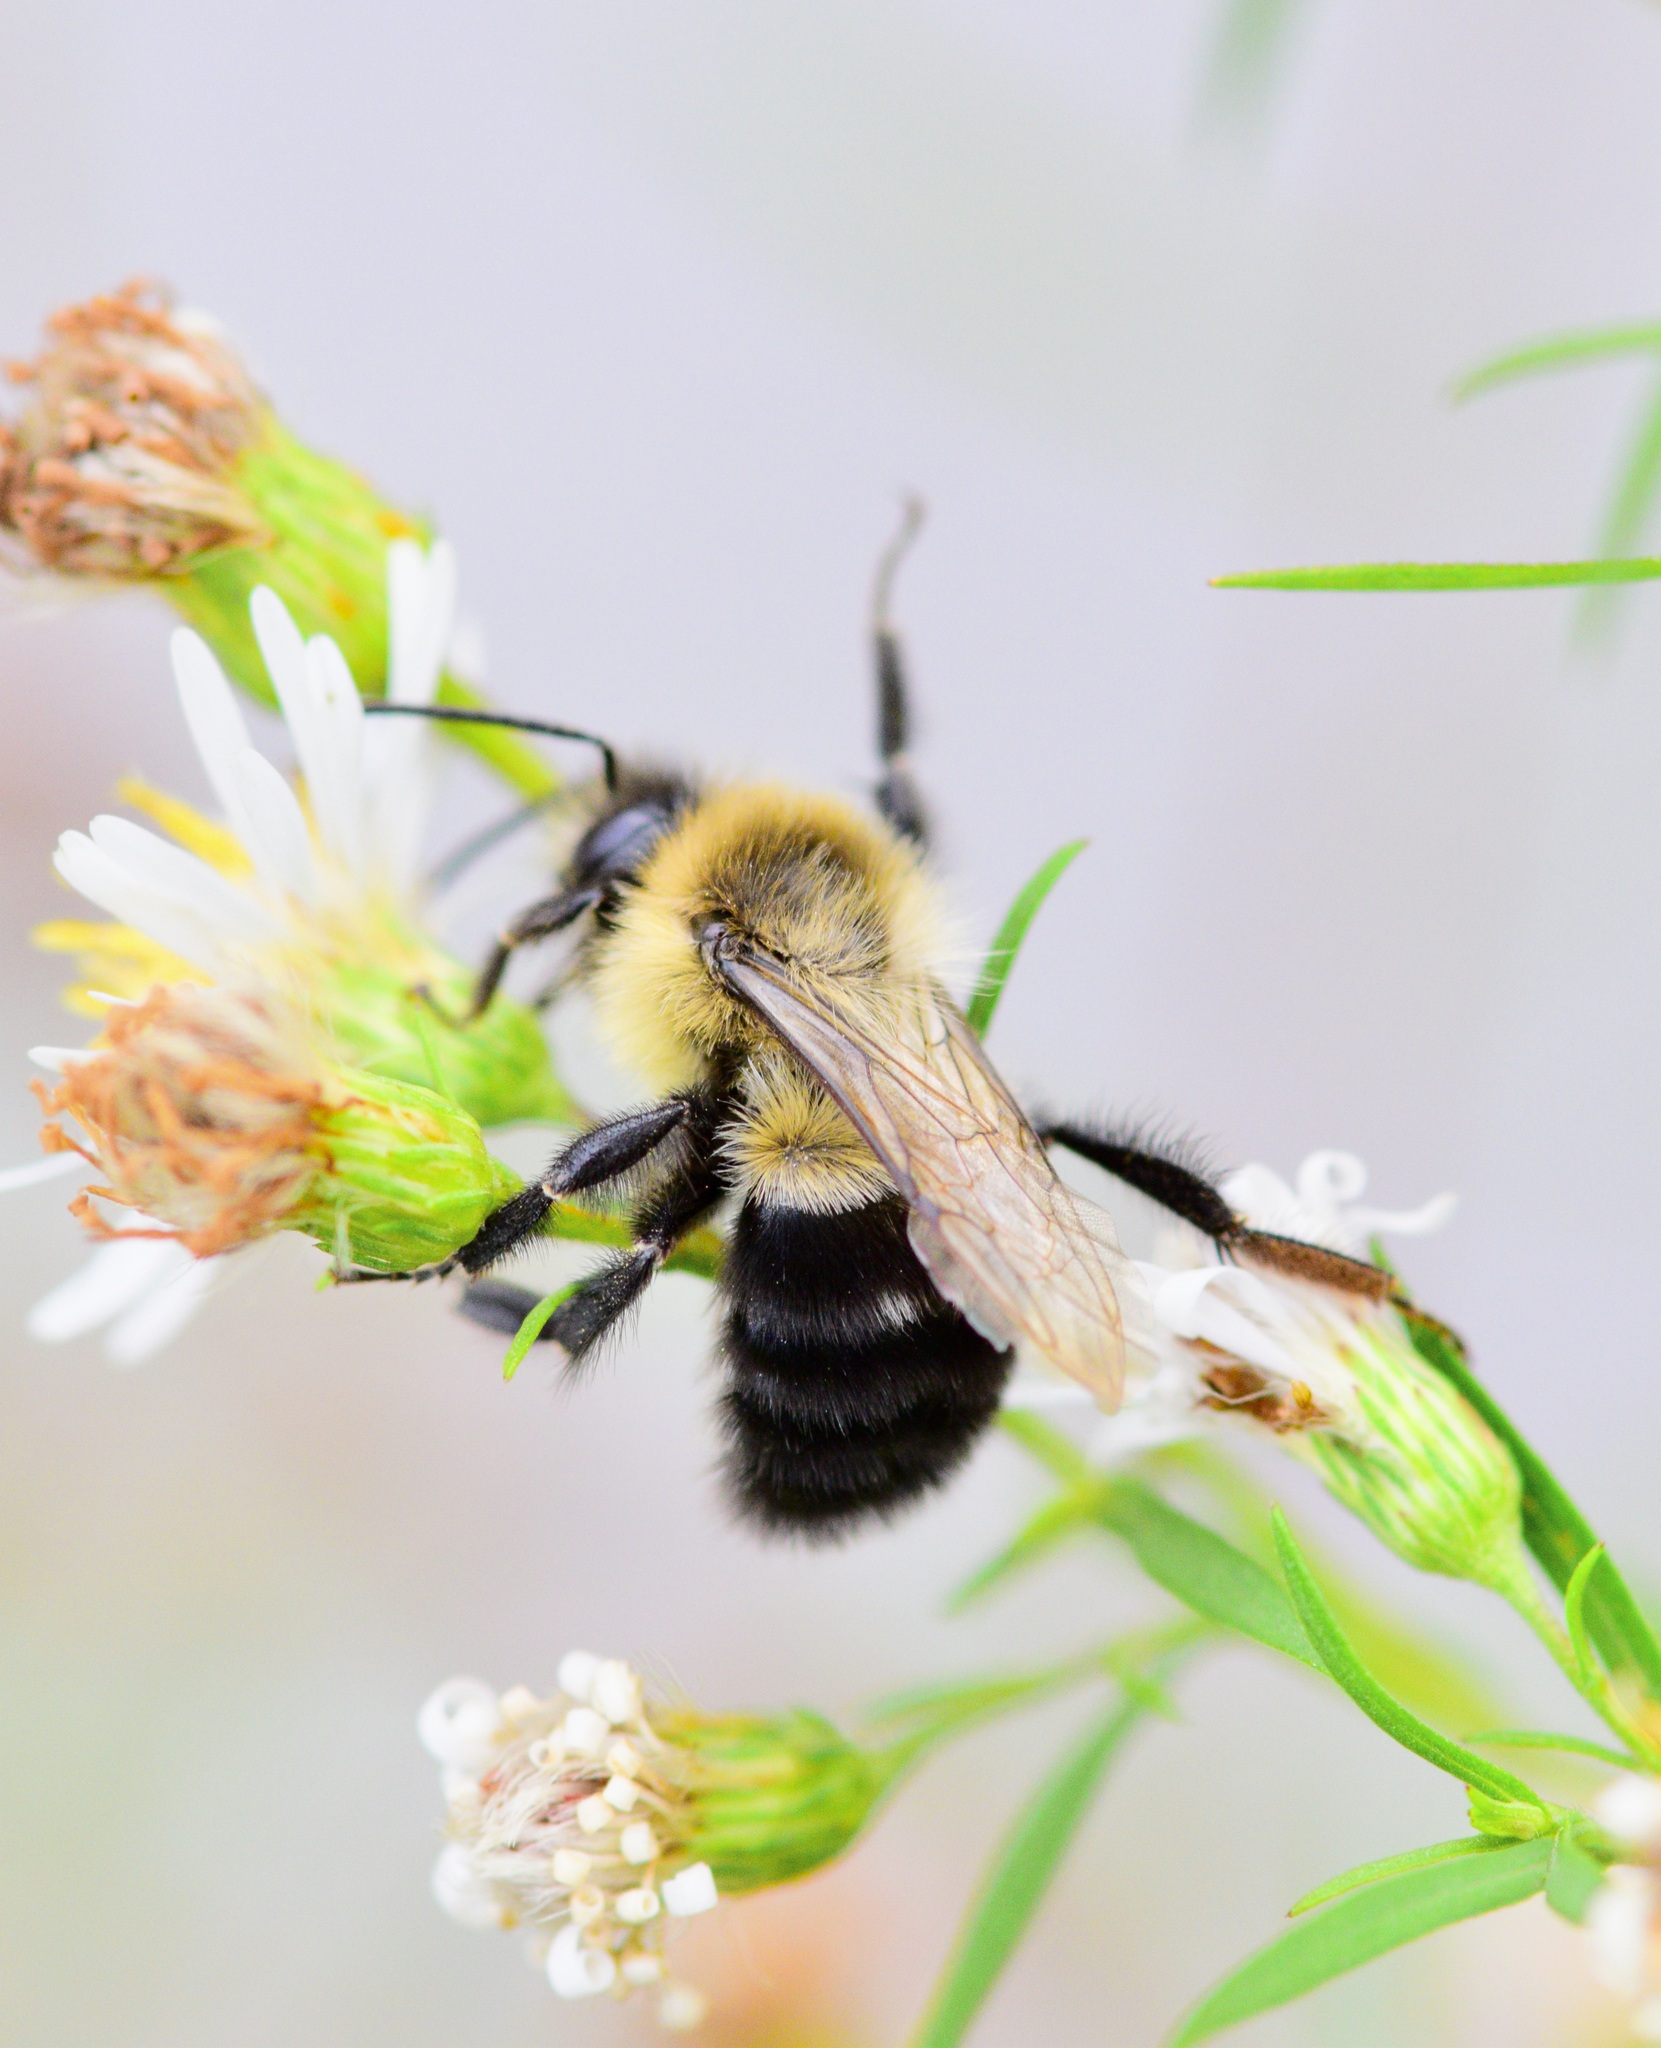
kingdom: Animalia
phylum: Arthropoda
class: Insecta
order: Hymenoptera
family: Apidae
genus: Bombus
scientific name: Bombus impatiens
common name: Common eastern bumble bee
